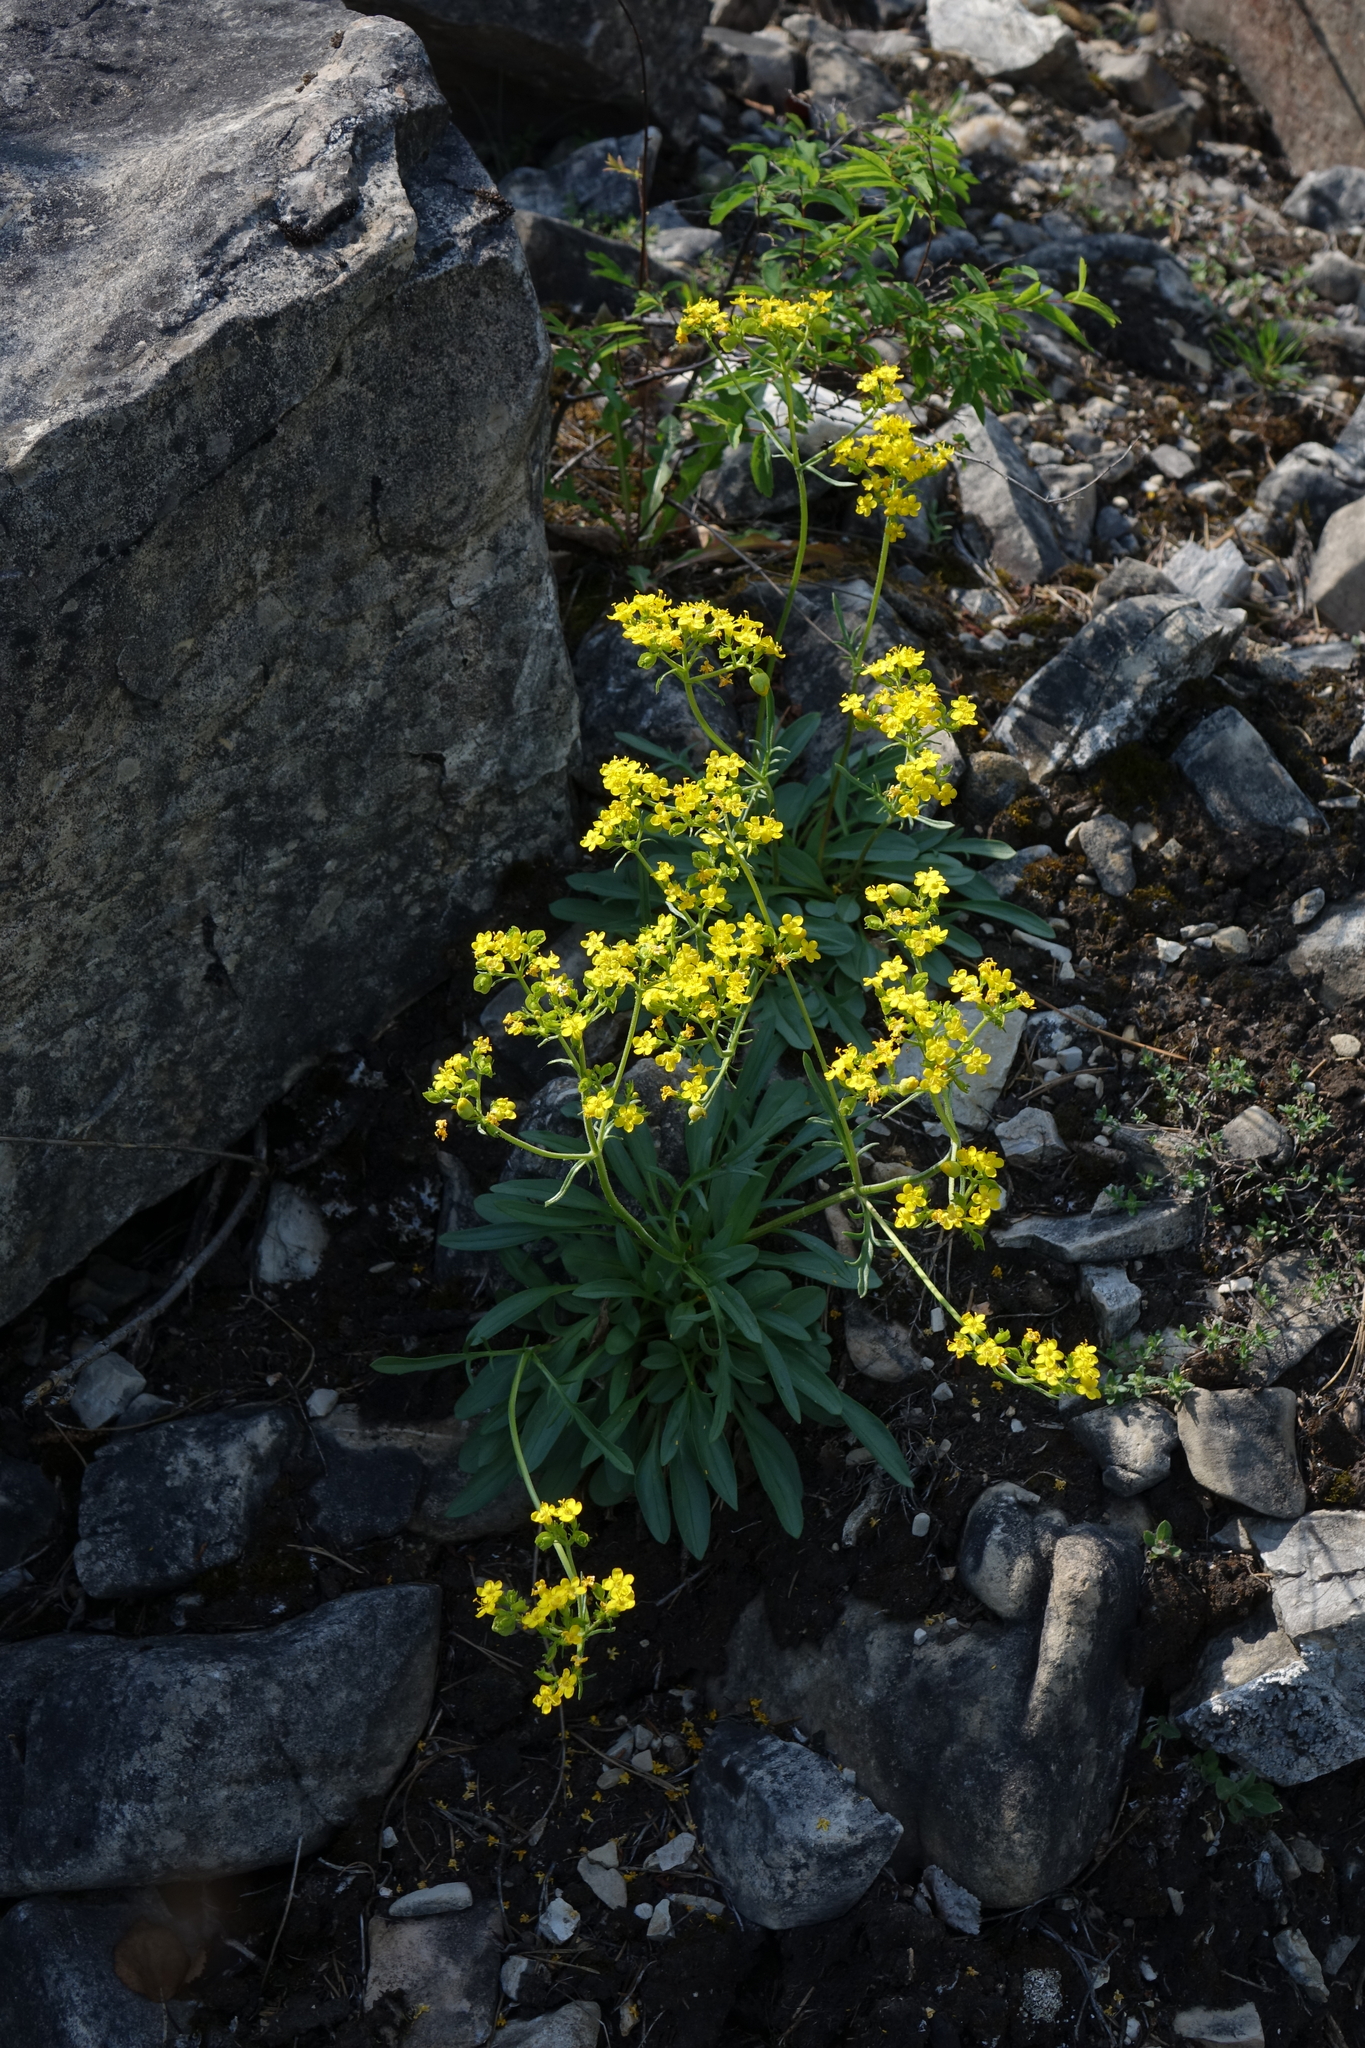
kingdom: Plantae
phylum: Tracheophyta
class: Magnoliopsida
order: Dipsacales
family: Caprifoliaceae
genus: Patrinia
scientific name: Patrinia sibirica
